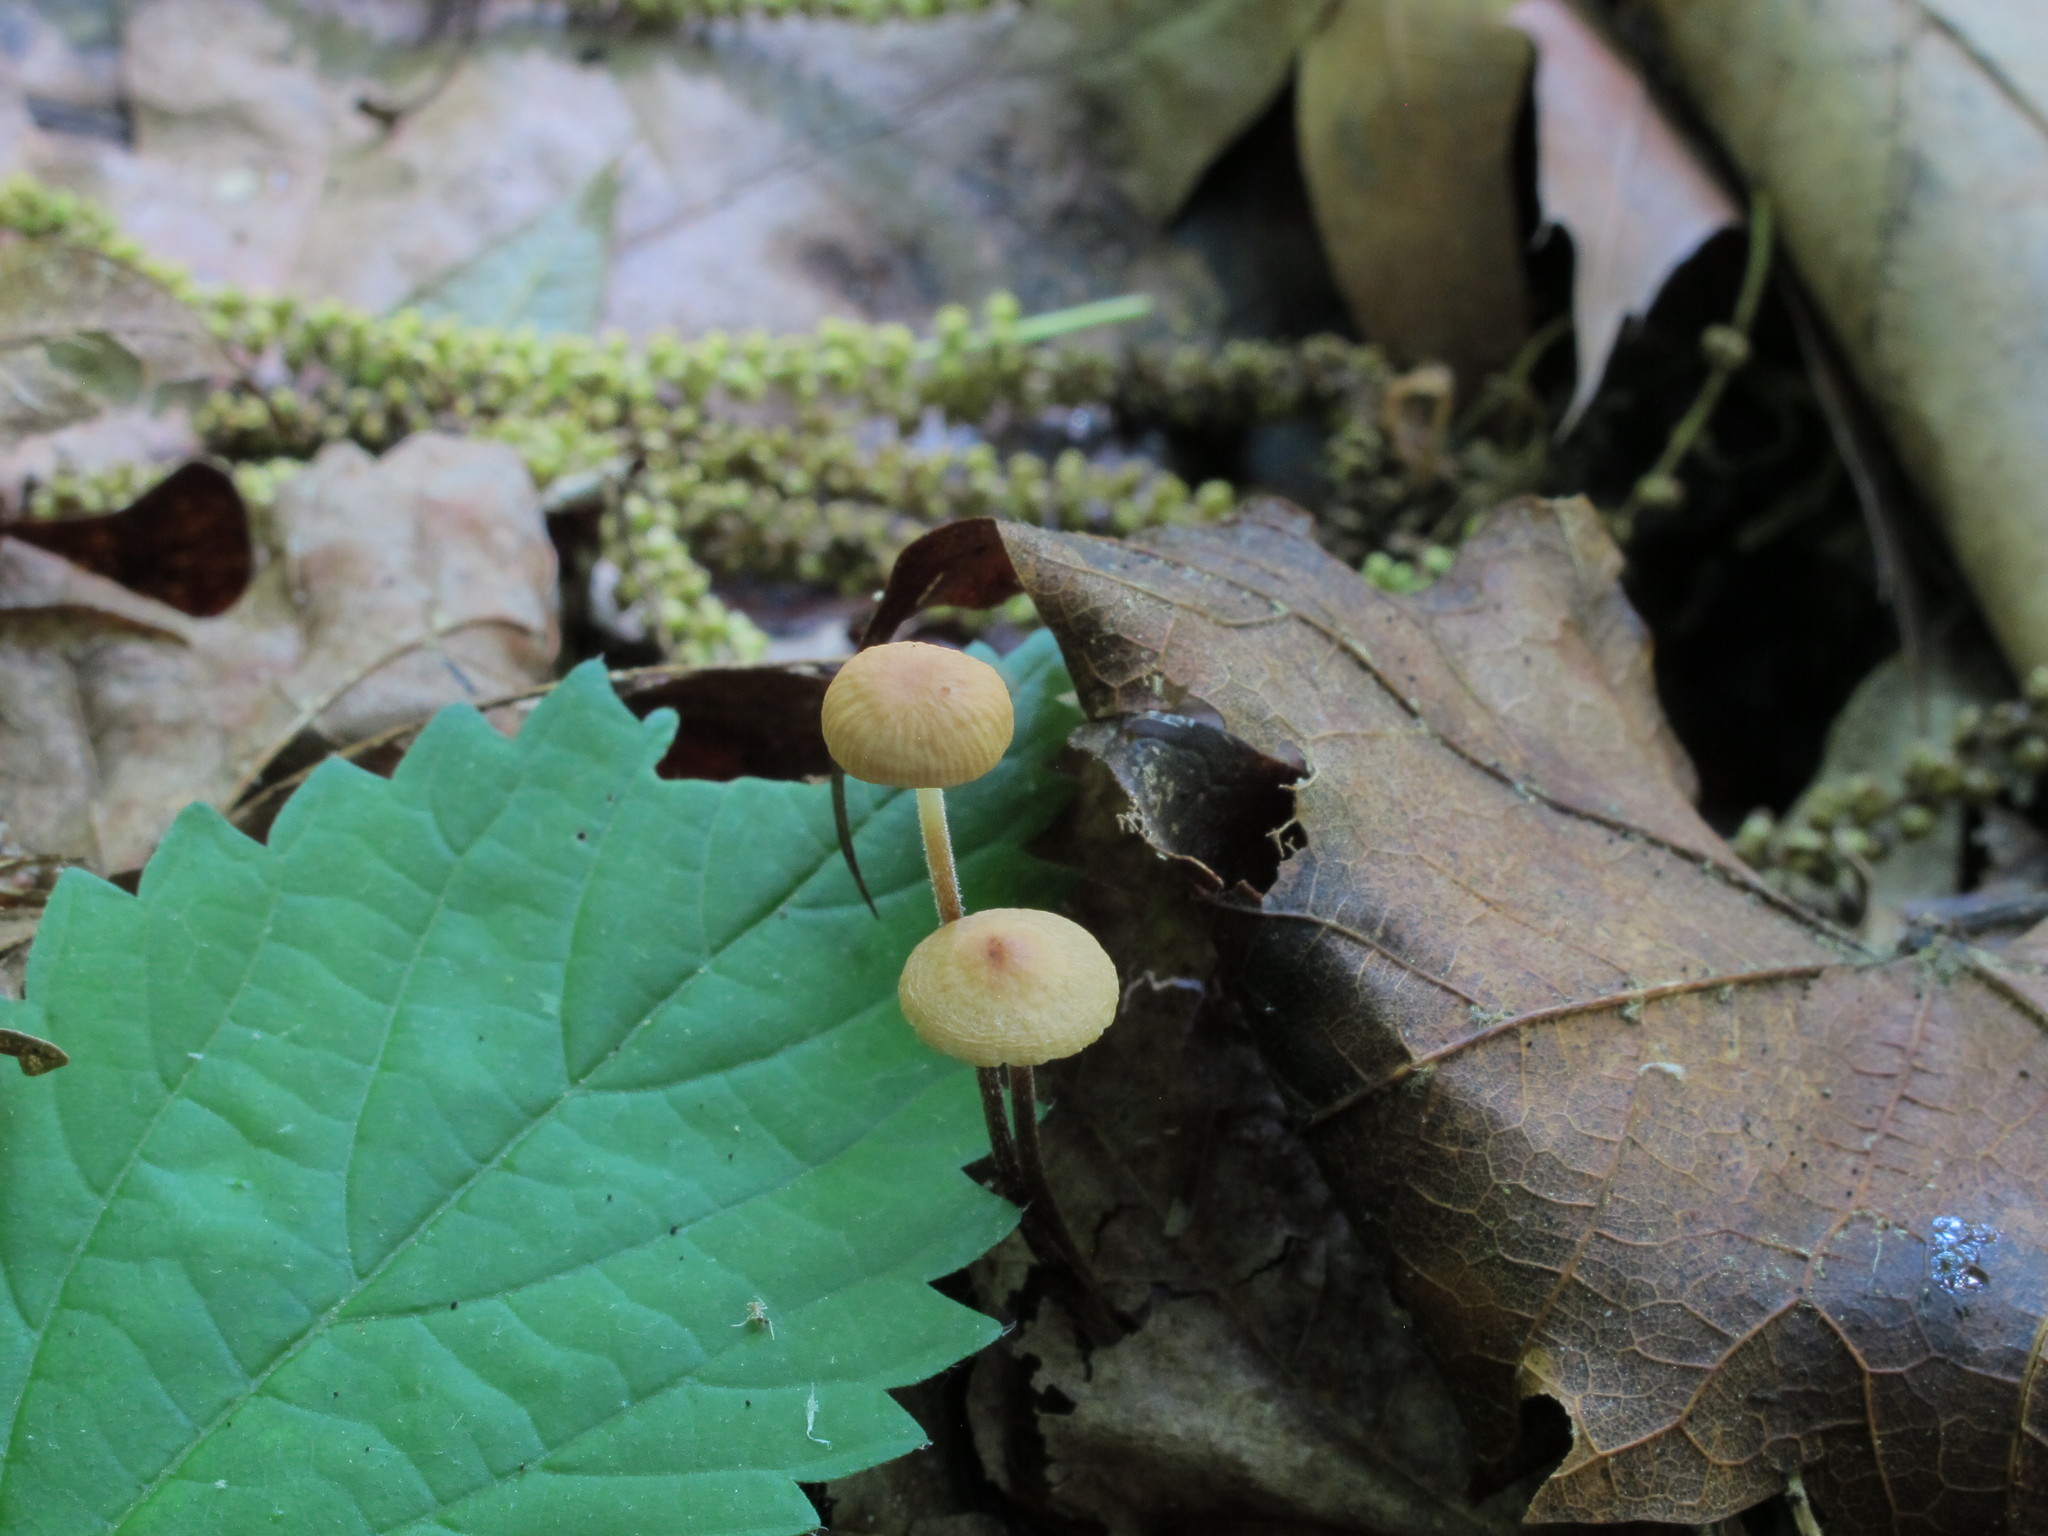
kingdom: Fungi
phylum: Basidiomycota
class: Agaricomycetes
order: Agaricales
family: Physalacriaceae
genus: Rhizomarasmius
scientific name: Rhizomarasmius pyrrhocephalus
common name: Hairy long stem marasmius
